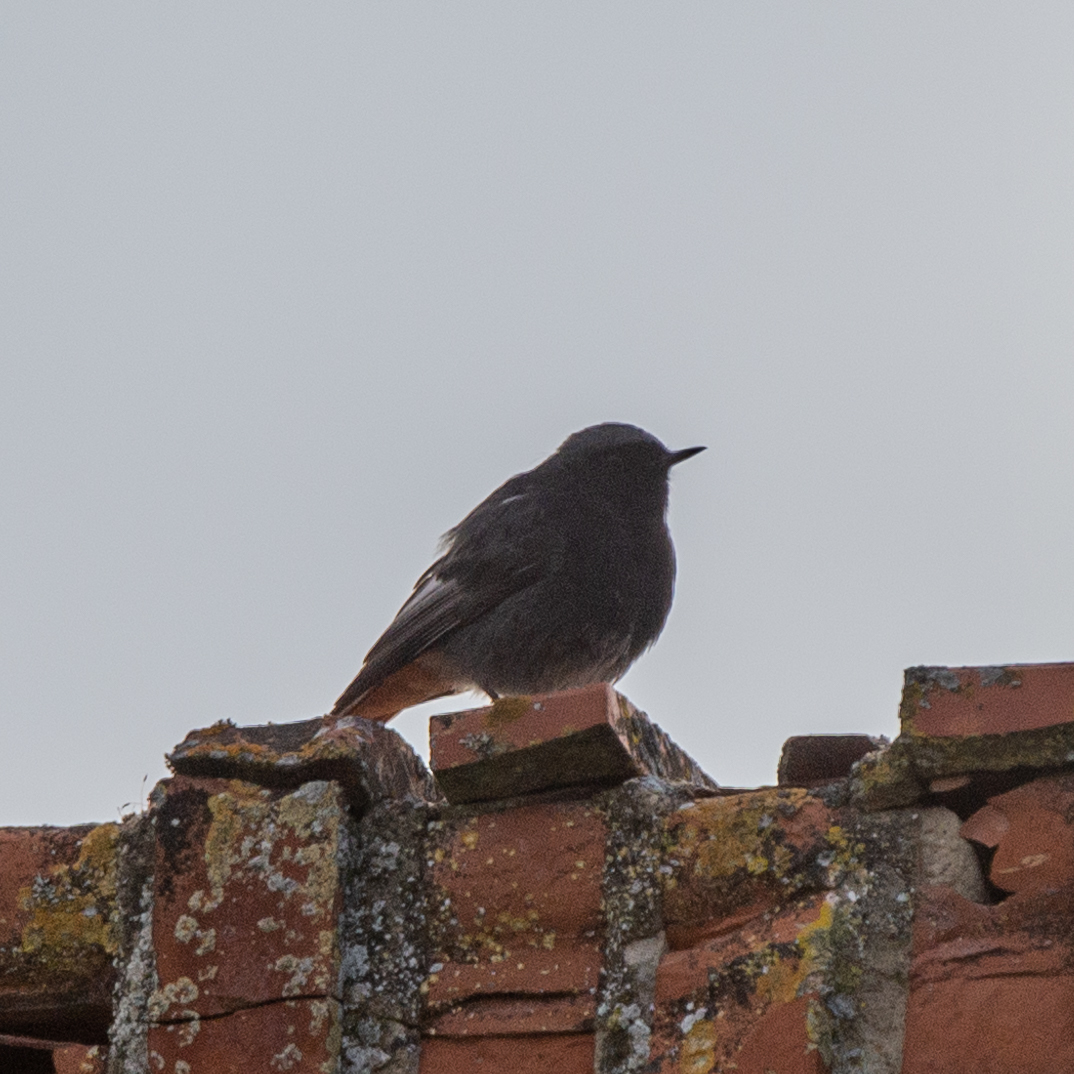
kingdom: Animalia
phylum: Chordata
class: Aves
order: Passeriformes
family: Muscicapidae
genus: Phoenicurus
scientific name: Phoenicurus ochruros
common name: Black redstart
